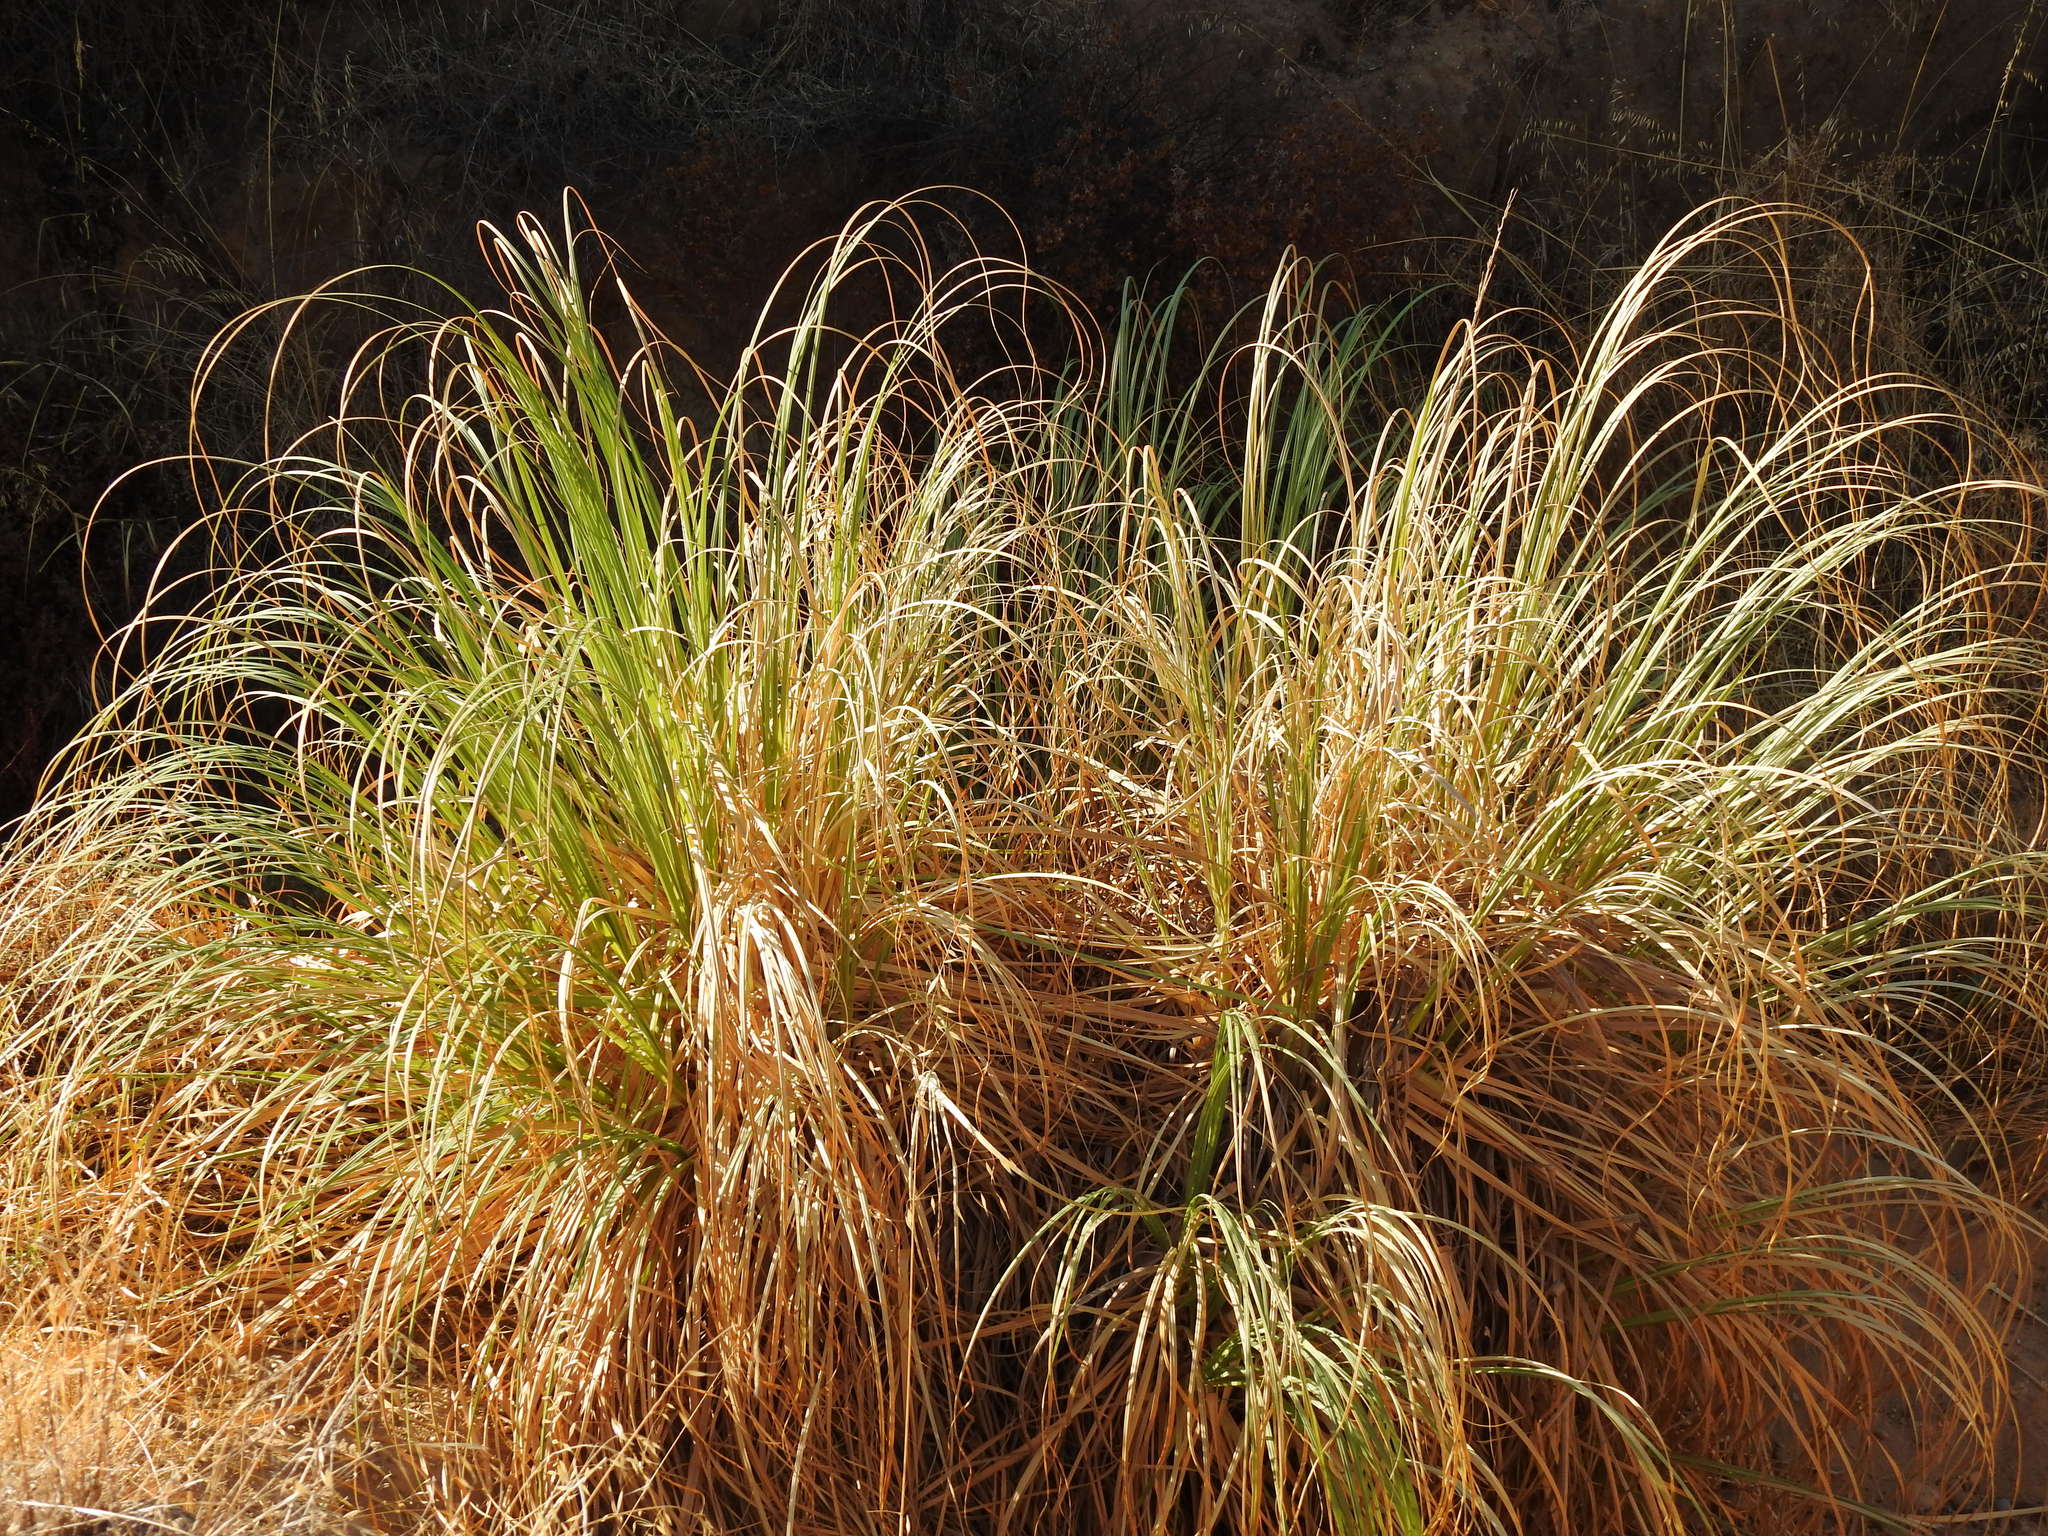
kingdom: Plantae
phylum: Tracheophyta
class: Liliopsida
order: Poales
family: Poaceae
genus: Cortaderia
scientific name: Cortaderia selloana
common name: Uruguayan pampas grass
